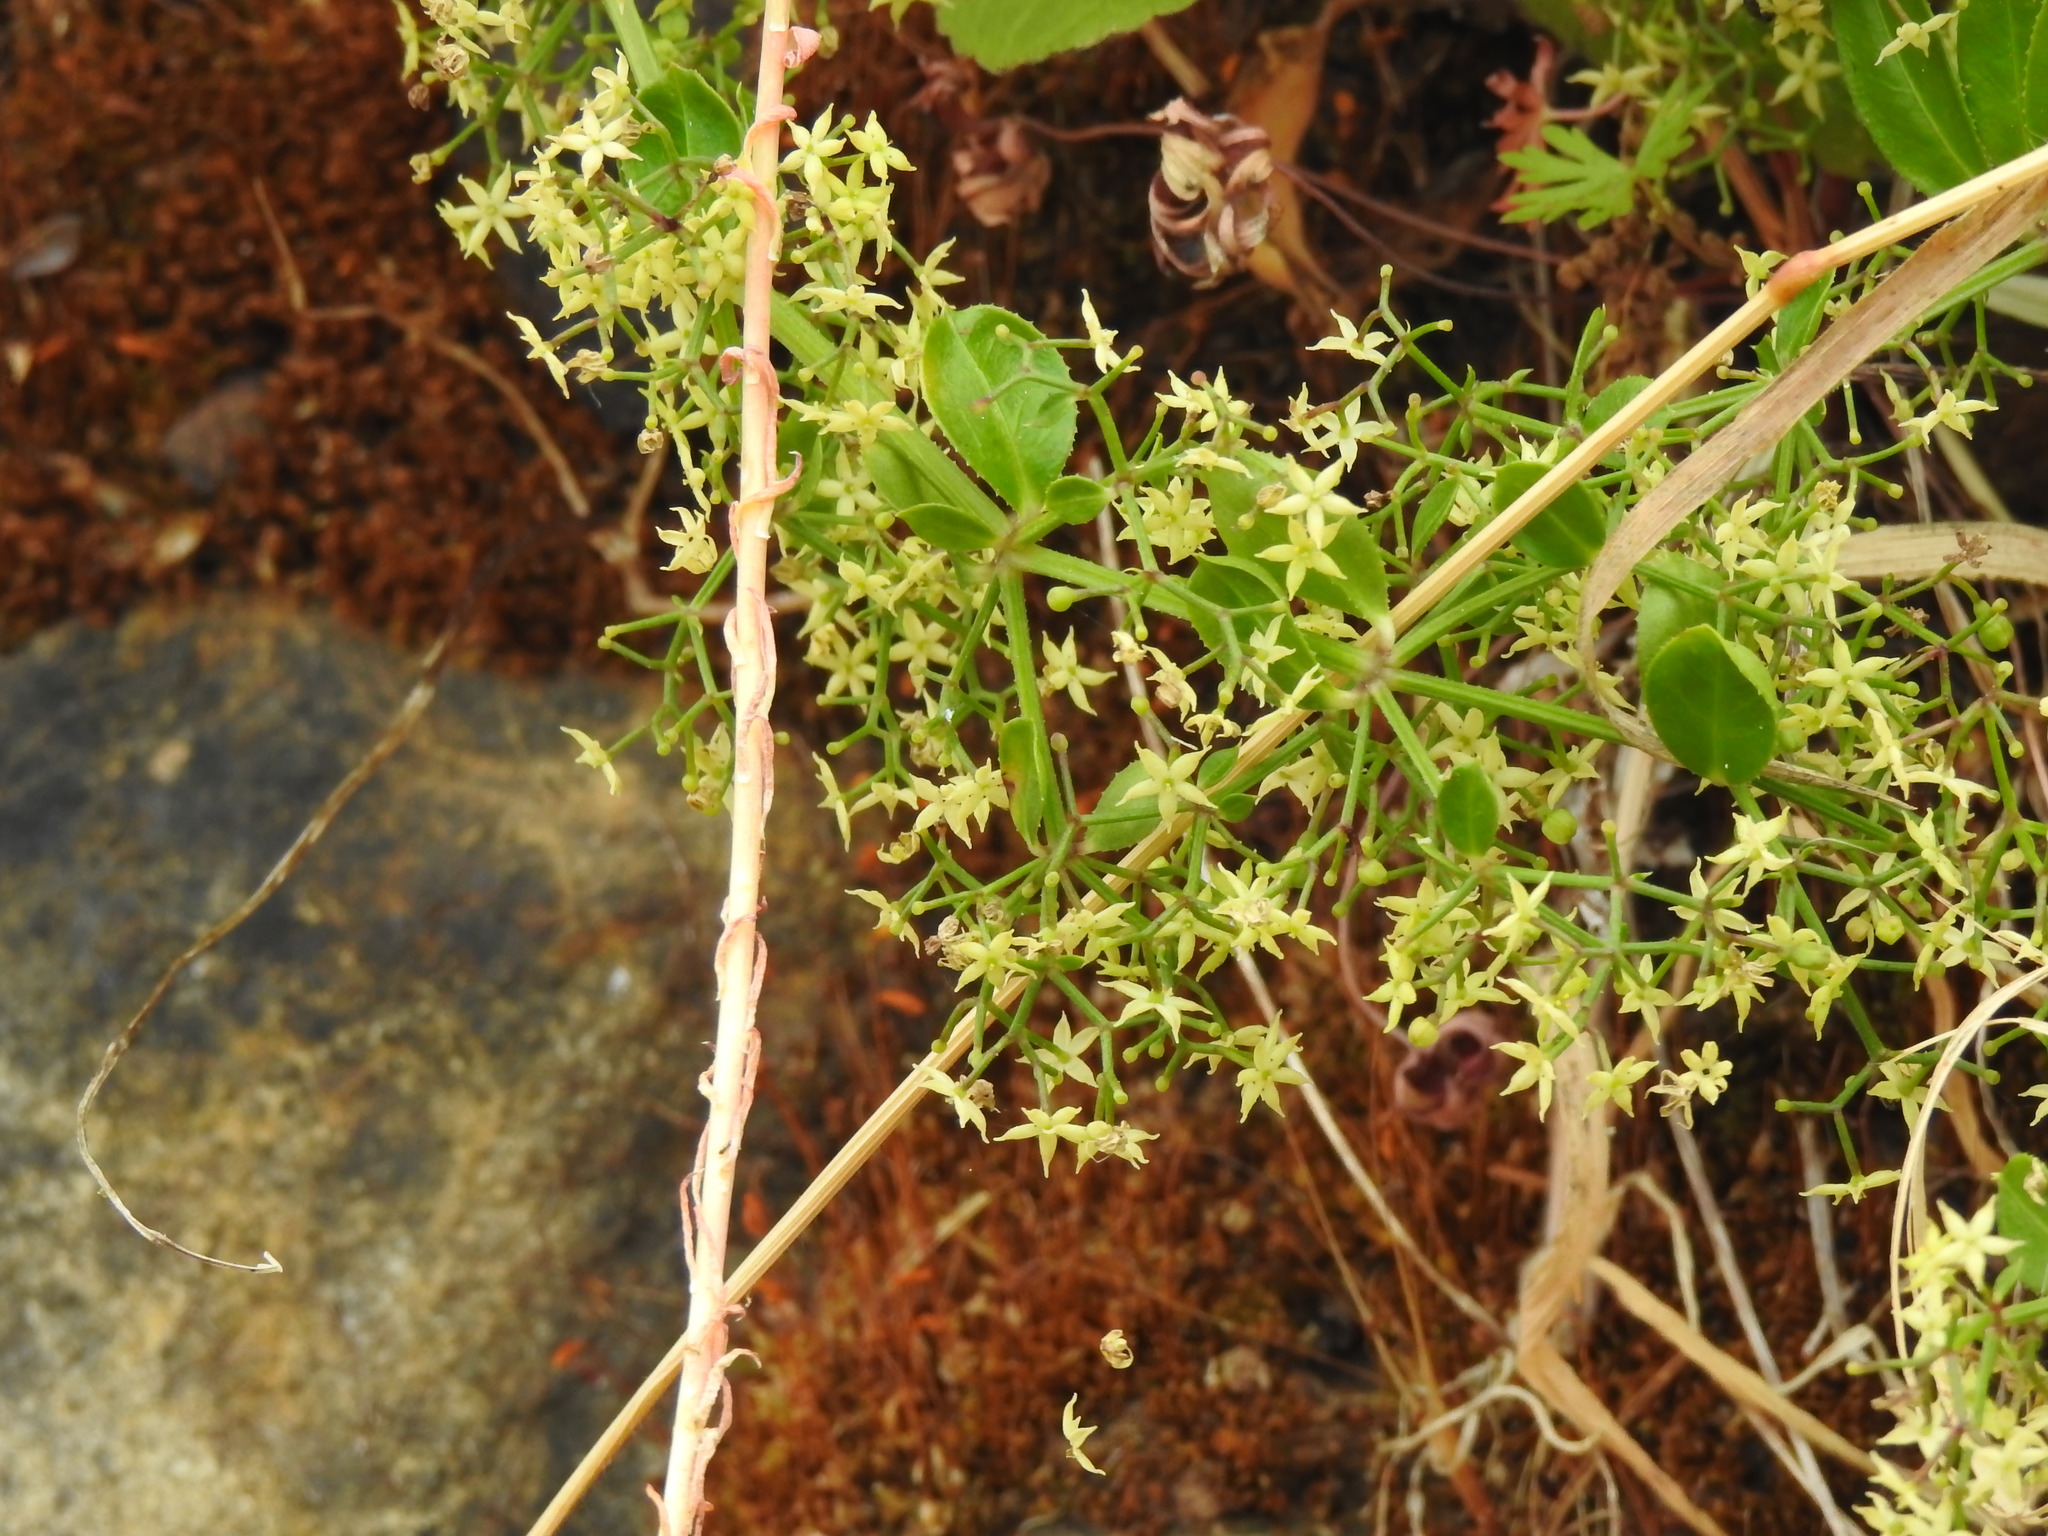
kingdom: Plantae
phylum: Tracheophyta
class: Magnoliopsida
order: Gentianales
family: Rubiaceae
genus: Rubia
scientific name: Rubia peregrina
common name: Wild madder
